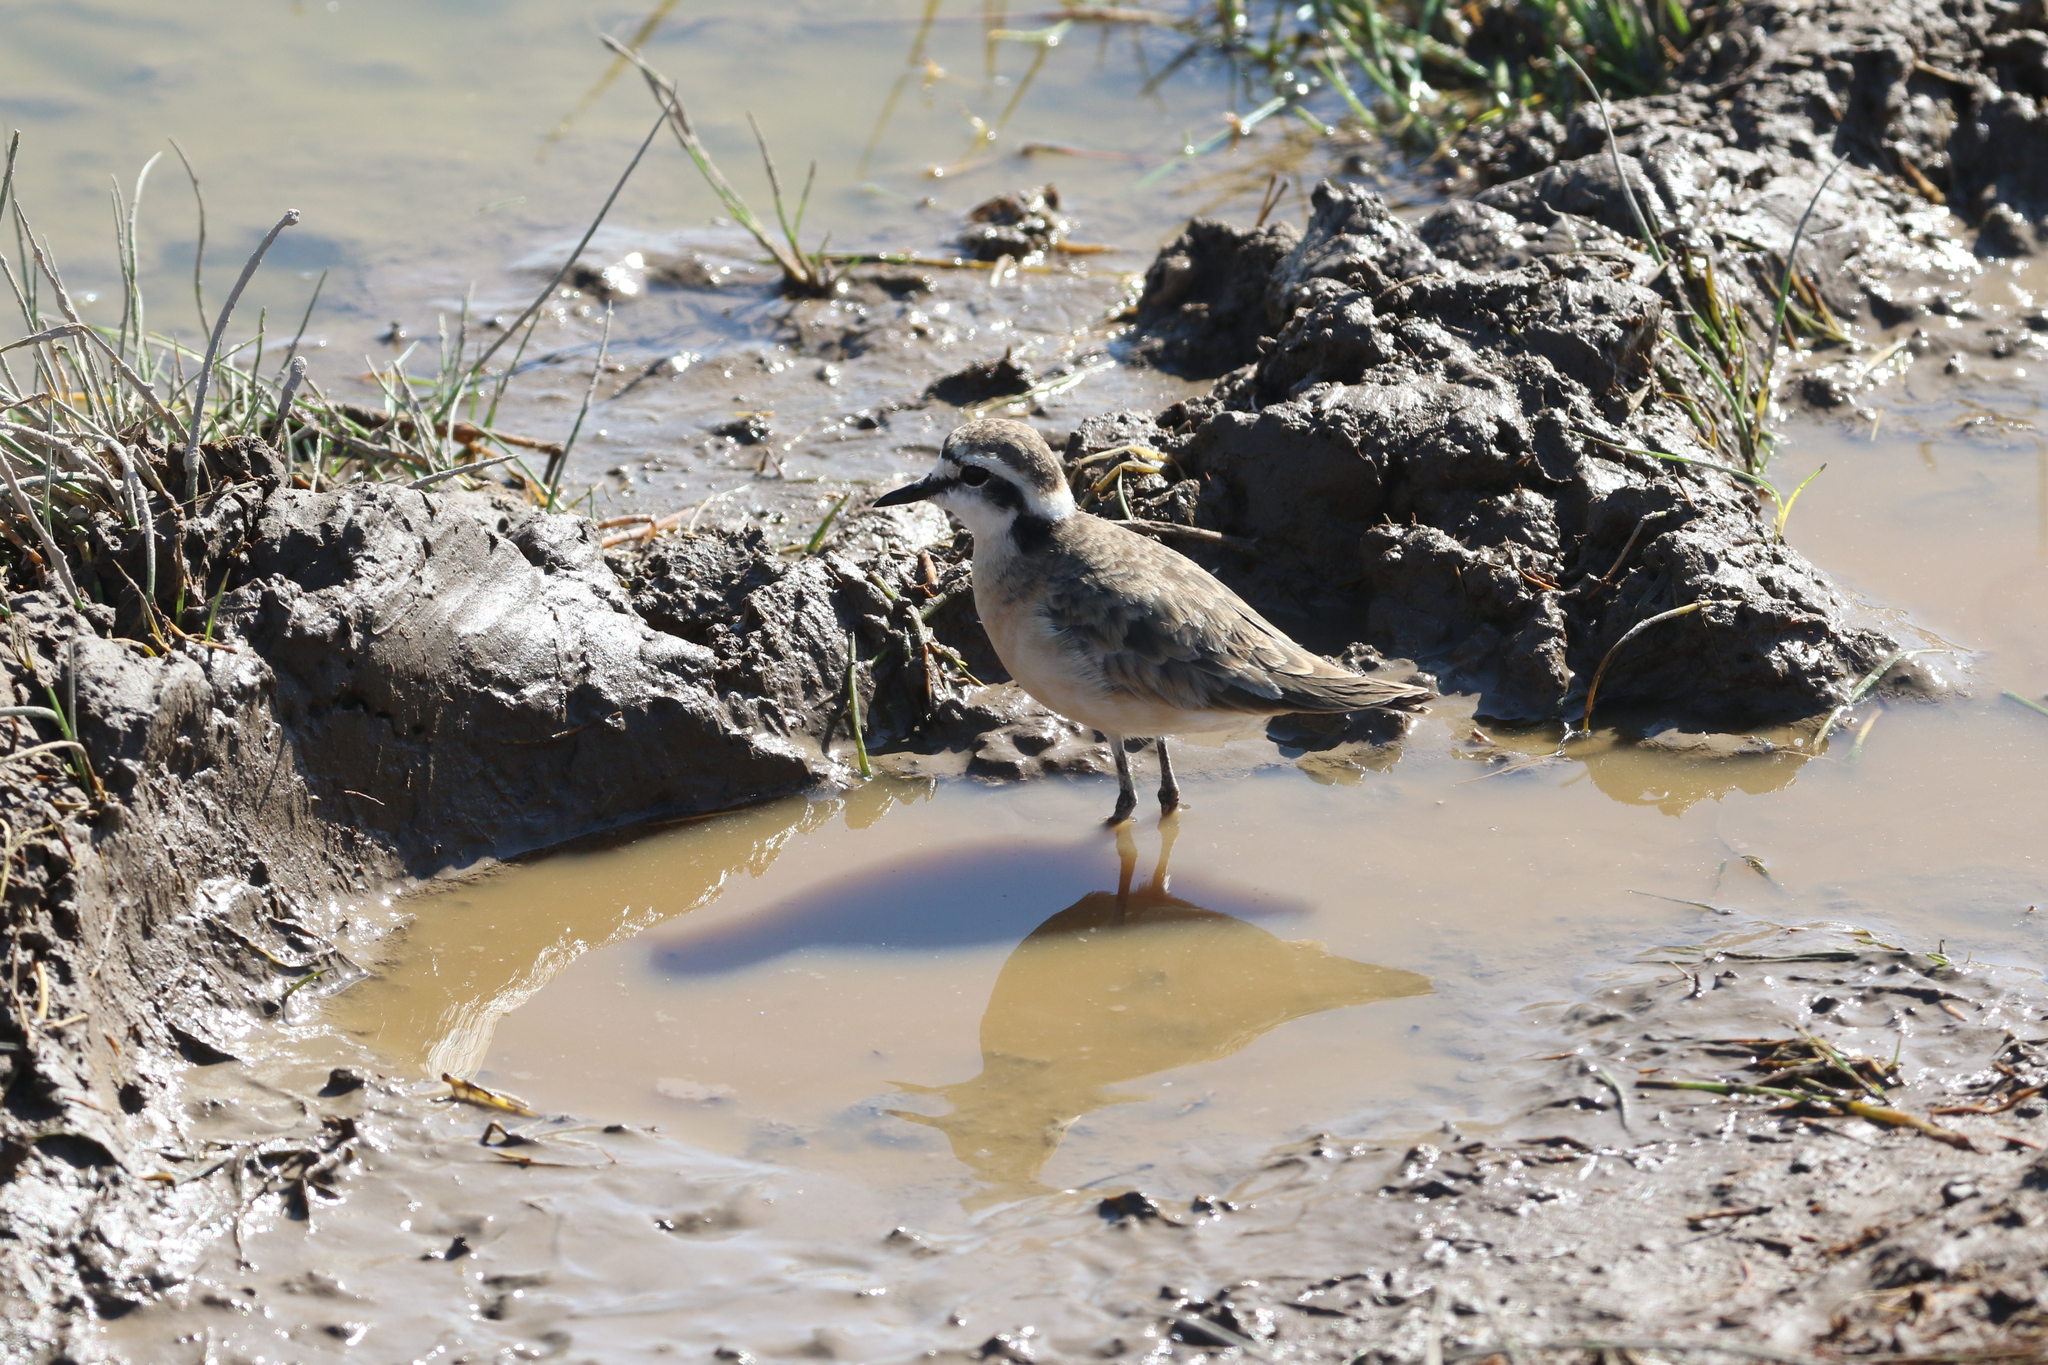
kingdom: Animalia
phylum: Chordata
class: Aves
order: Charadriiformes
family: Charadriidae
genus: Anarhynchus
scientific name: Anarhynchus
